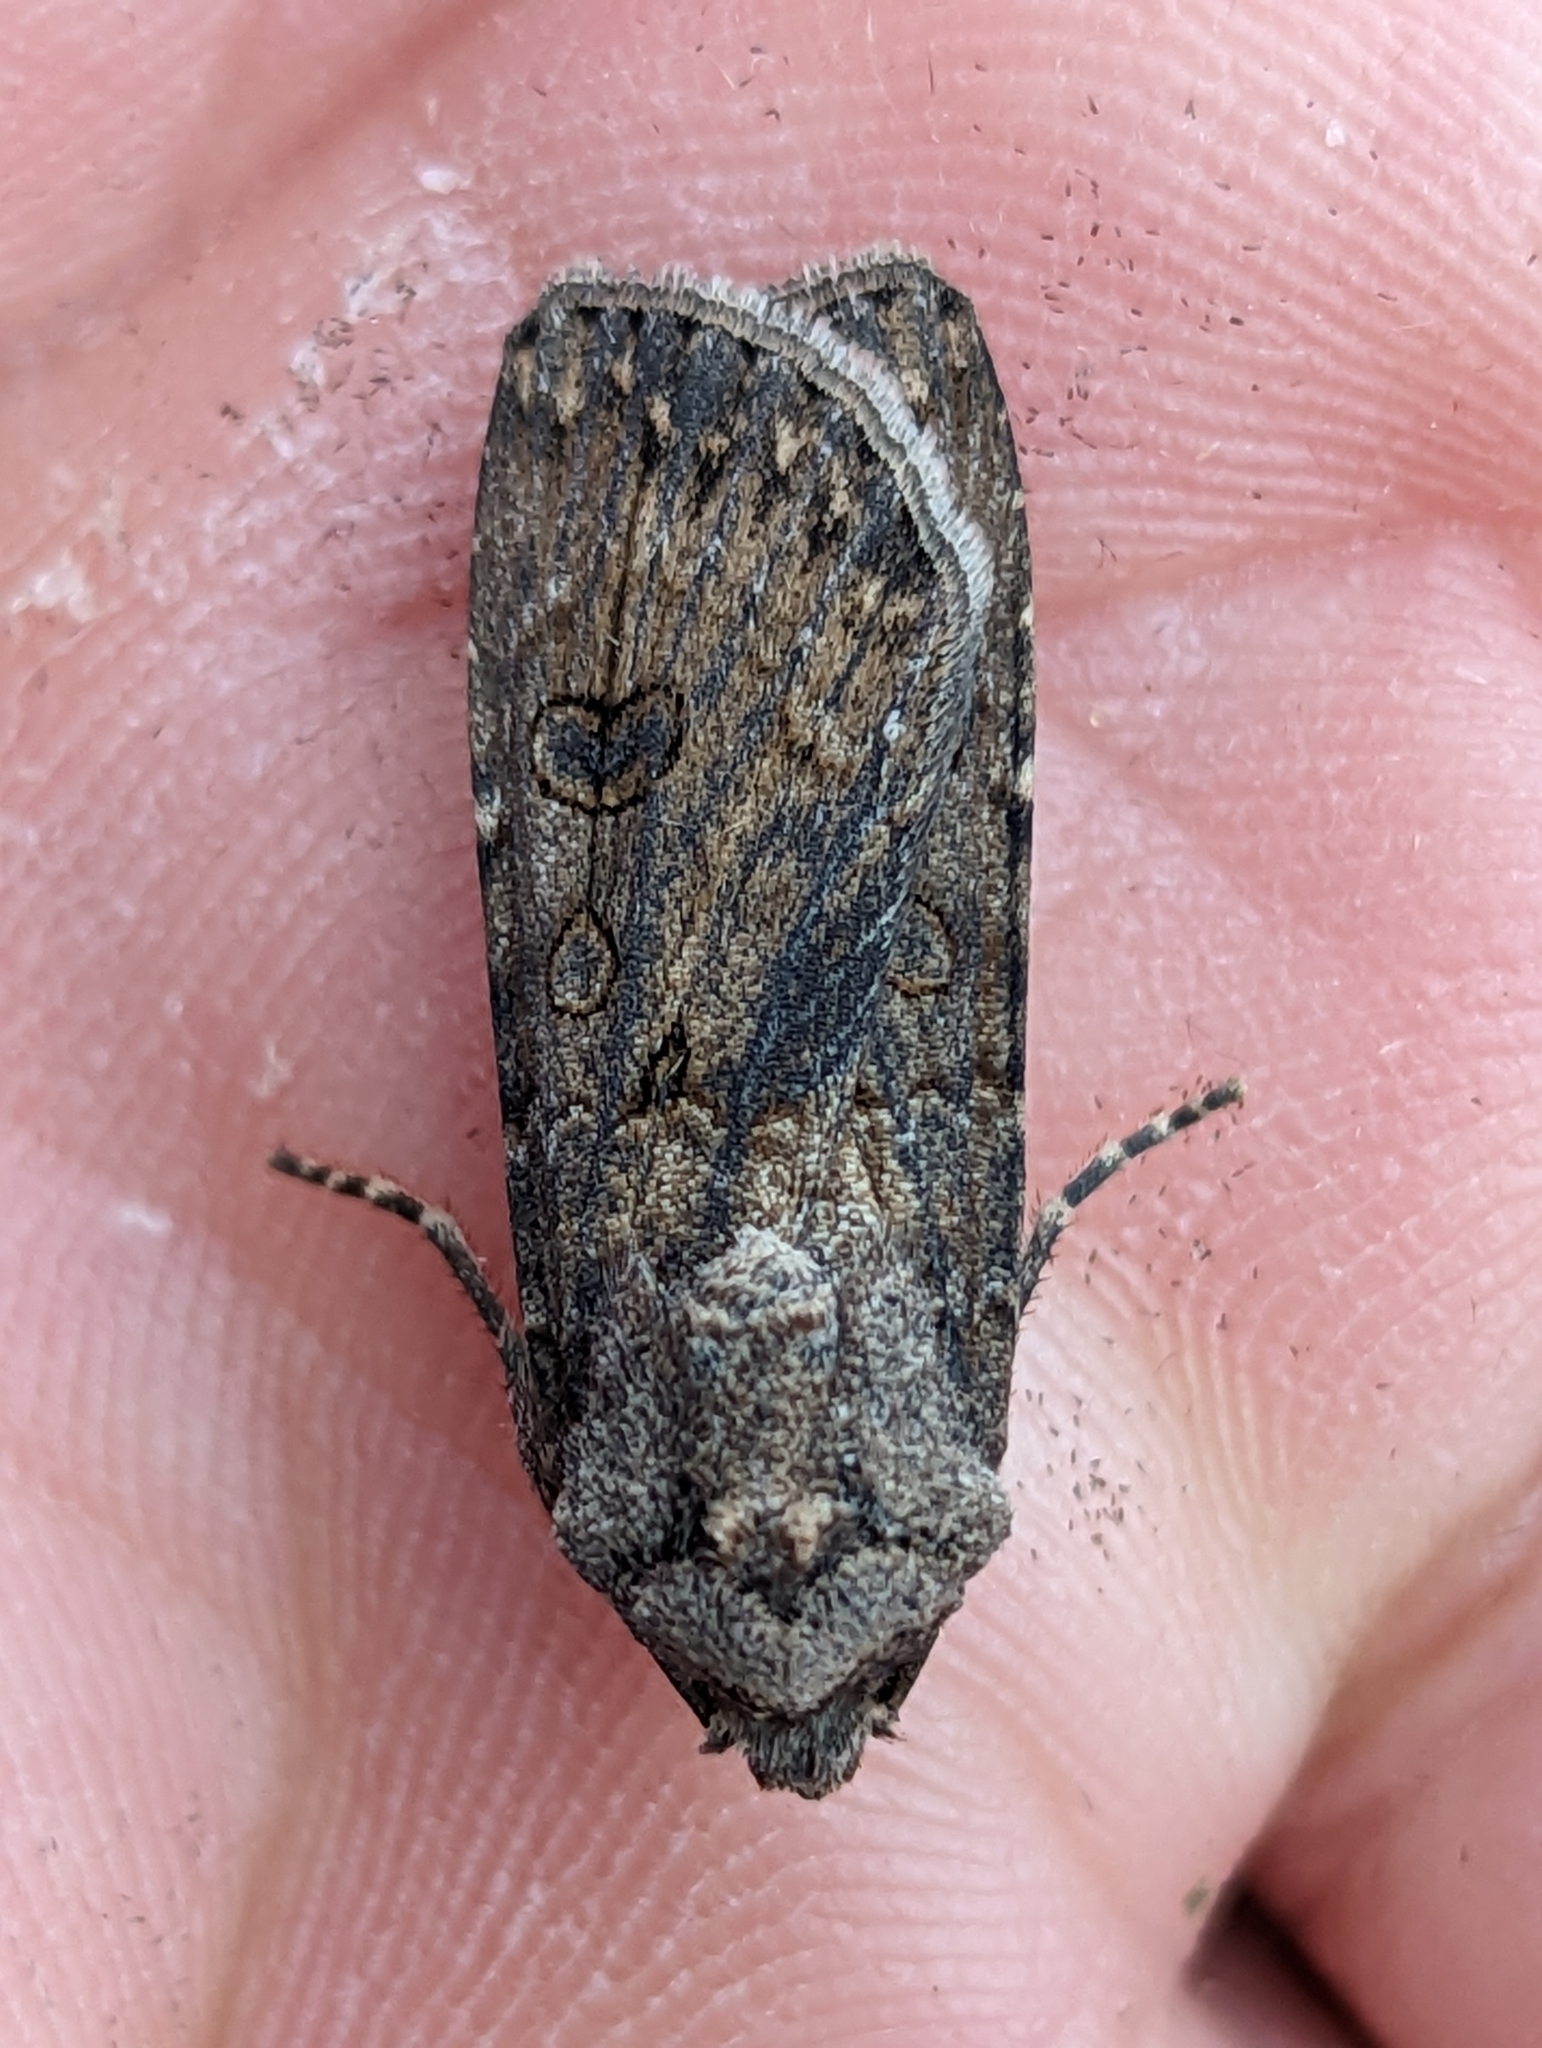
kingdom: Animalia
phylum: Arthropoda
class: Insecta
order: Lepidoptera
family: Noctuidae
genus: Agrotis
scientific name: Agrotis segetum
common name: Turnip moth
